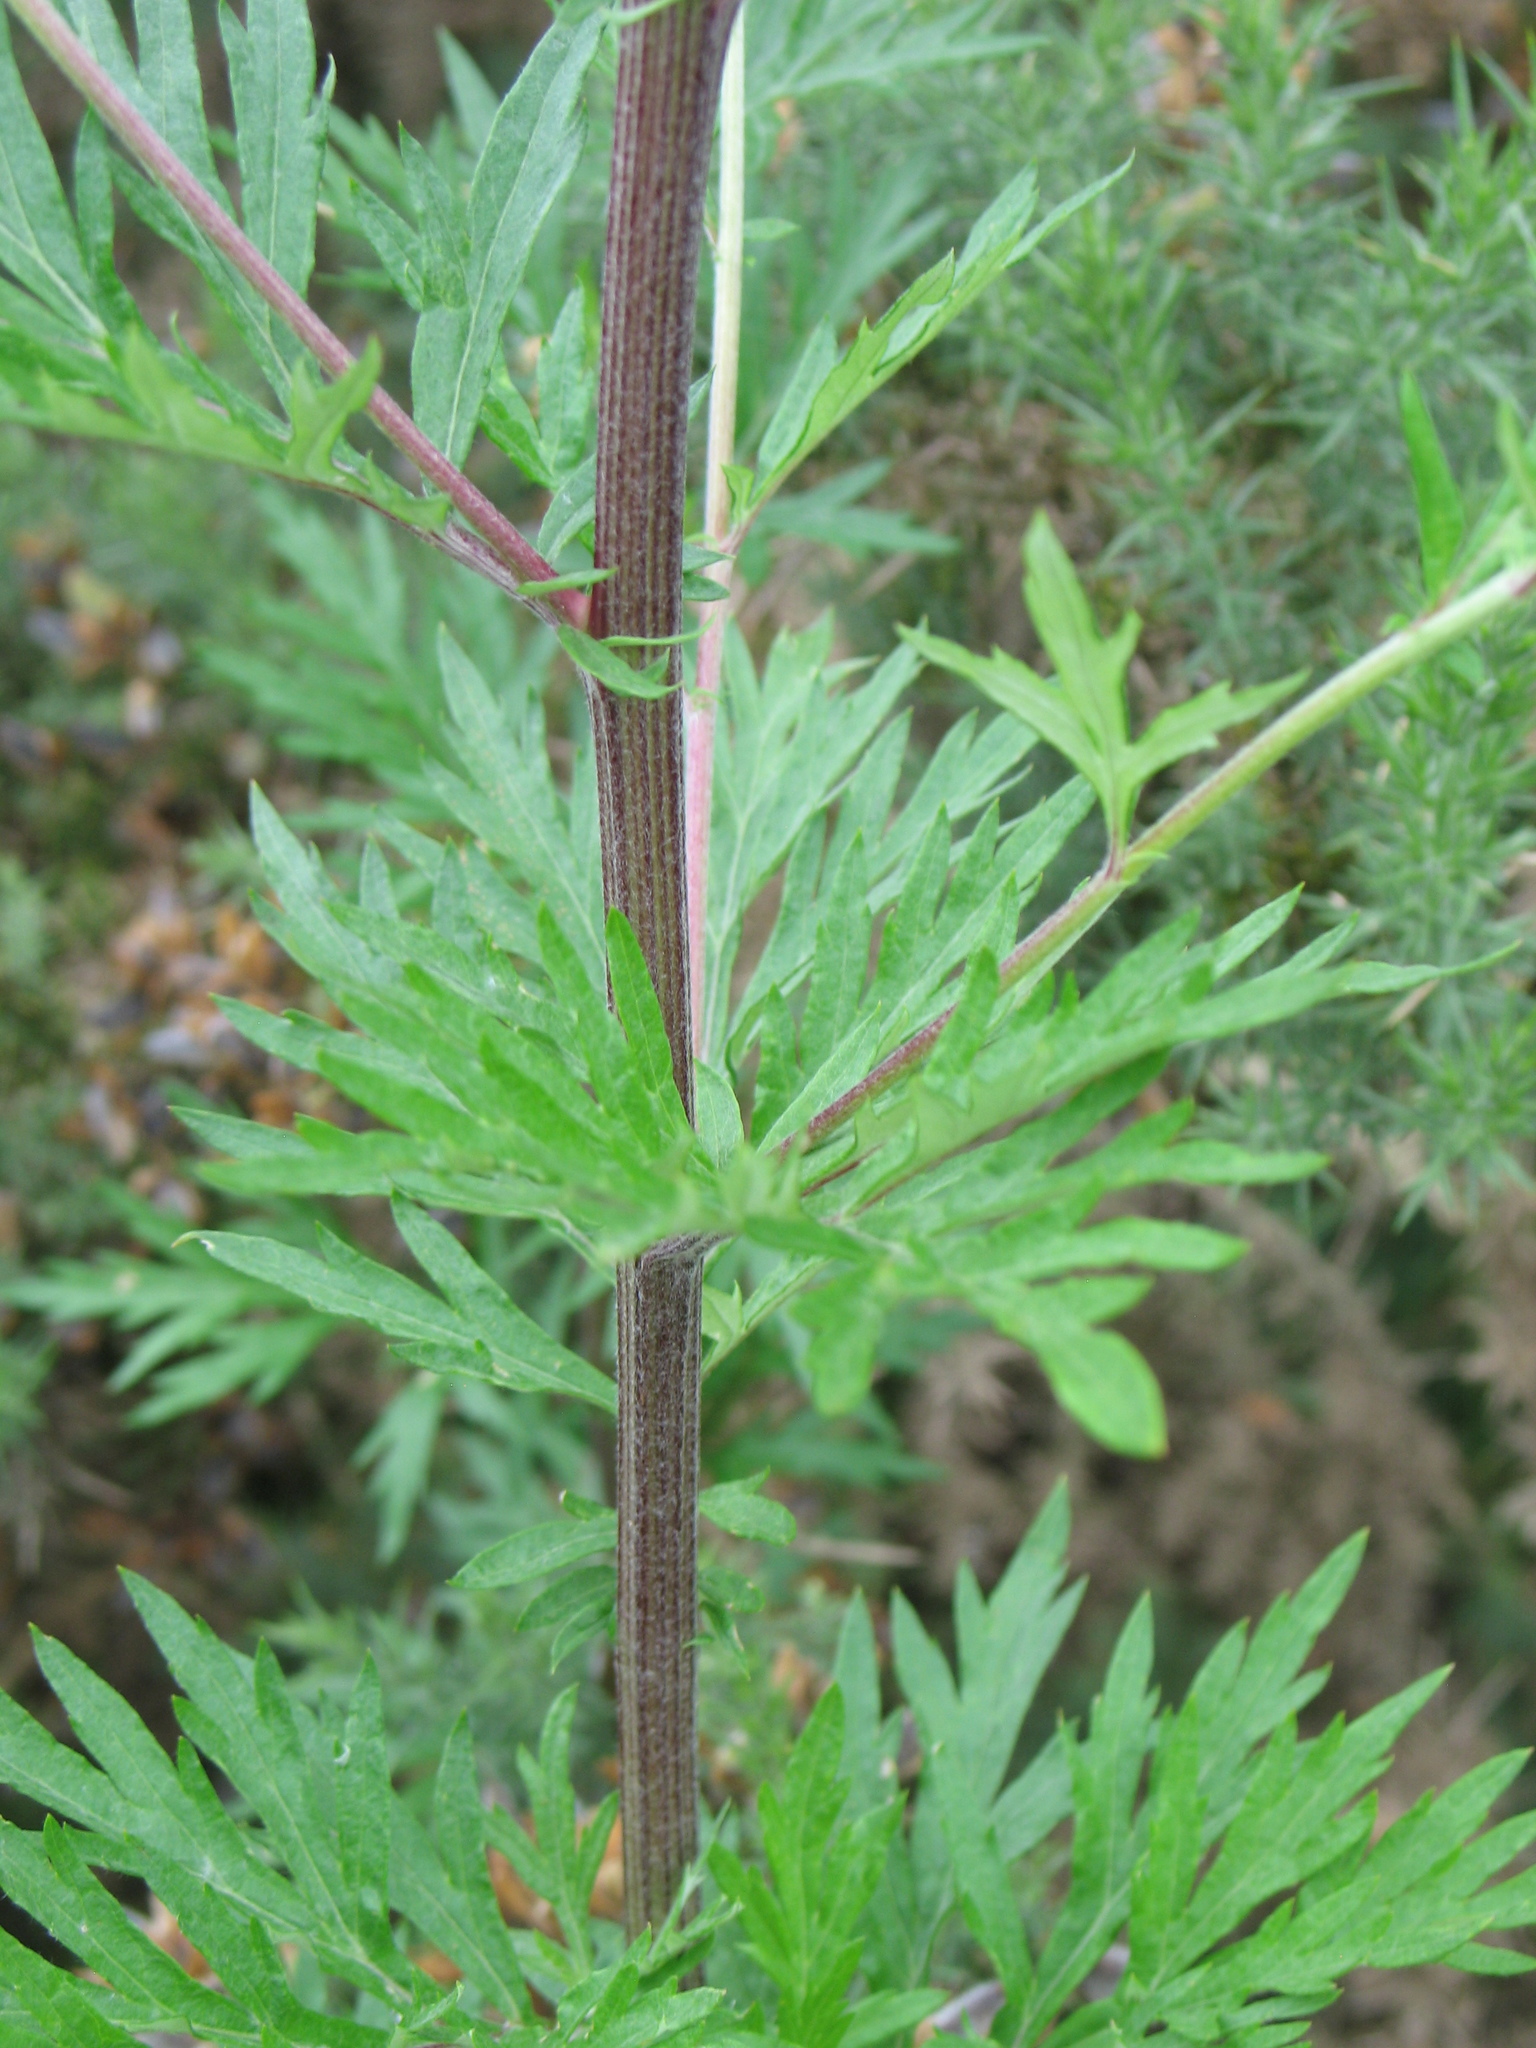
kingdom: Plantae
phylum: Tracheophyta
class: Magnoliopsida
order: Asterales
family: Asteraceae
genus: Artemisia
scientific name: Artemisia vulgaris
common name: Mugwort
